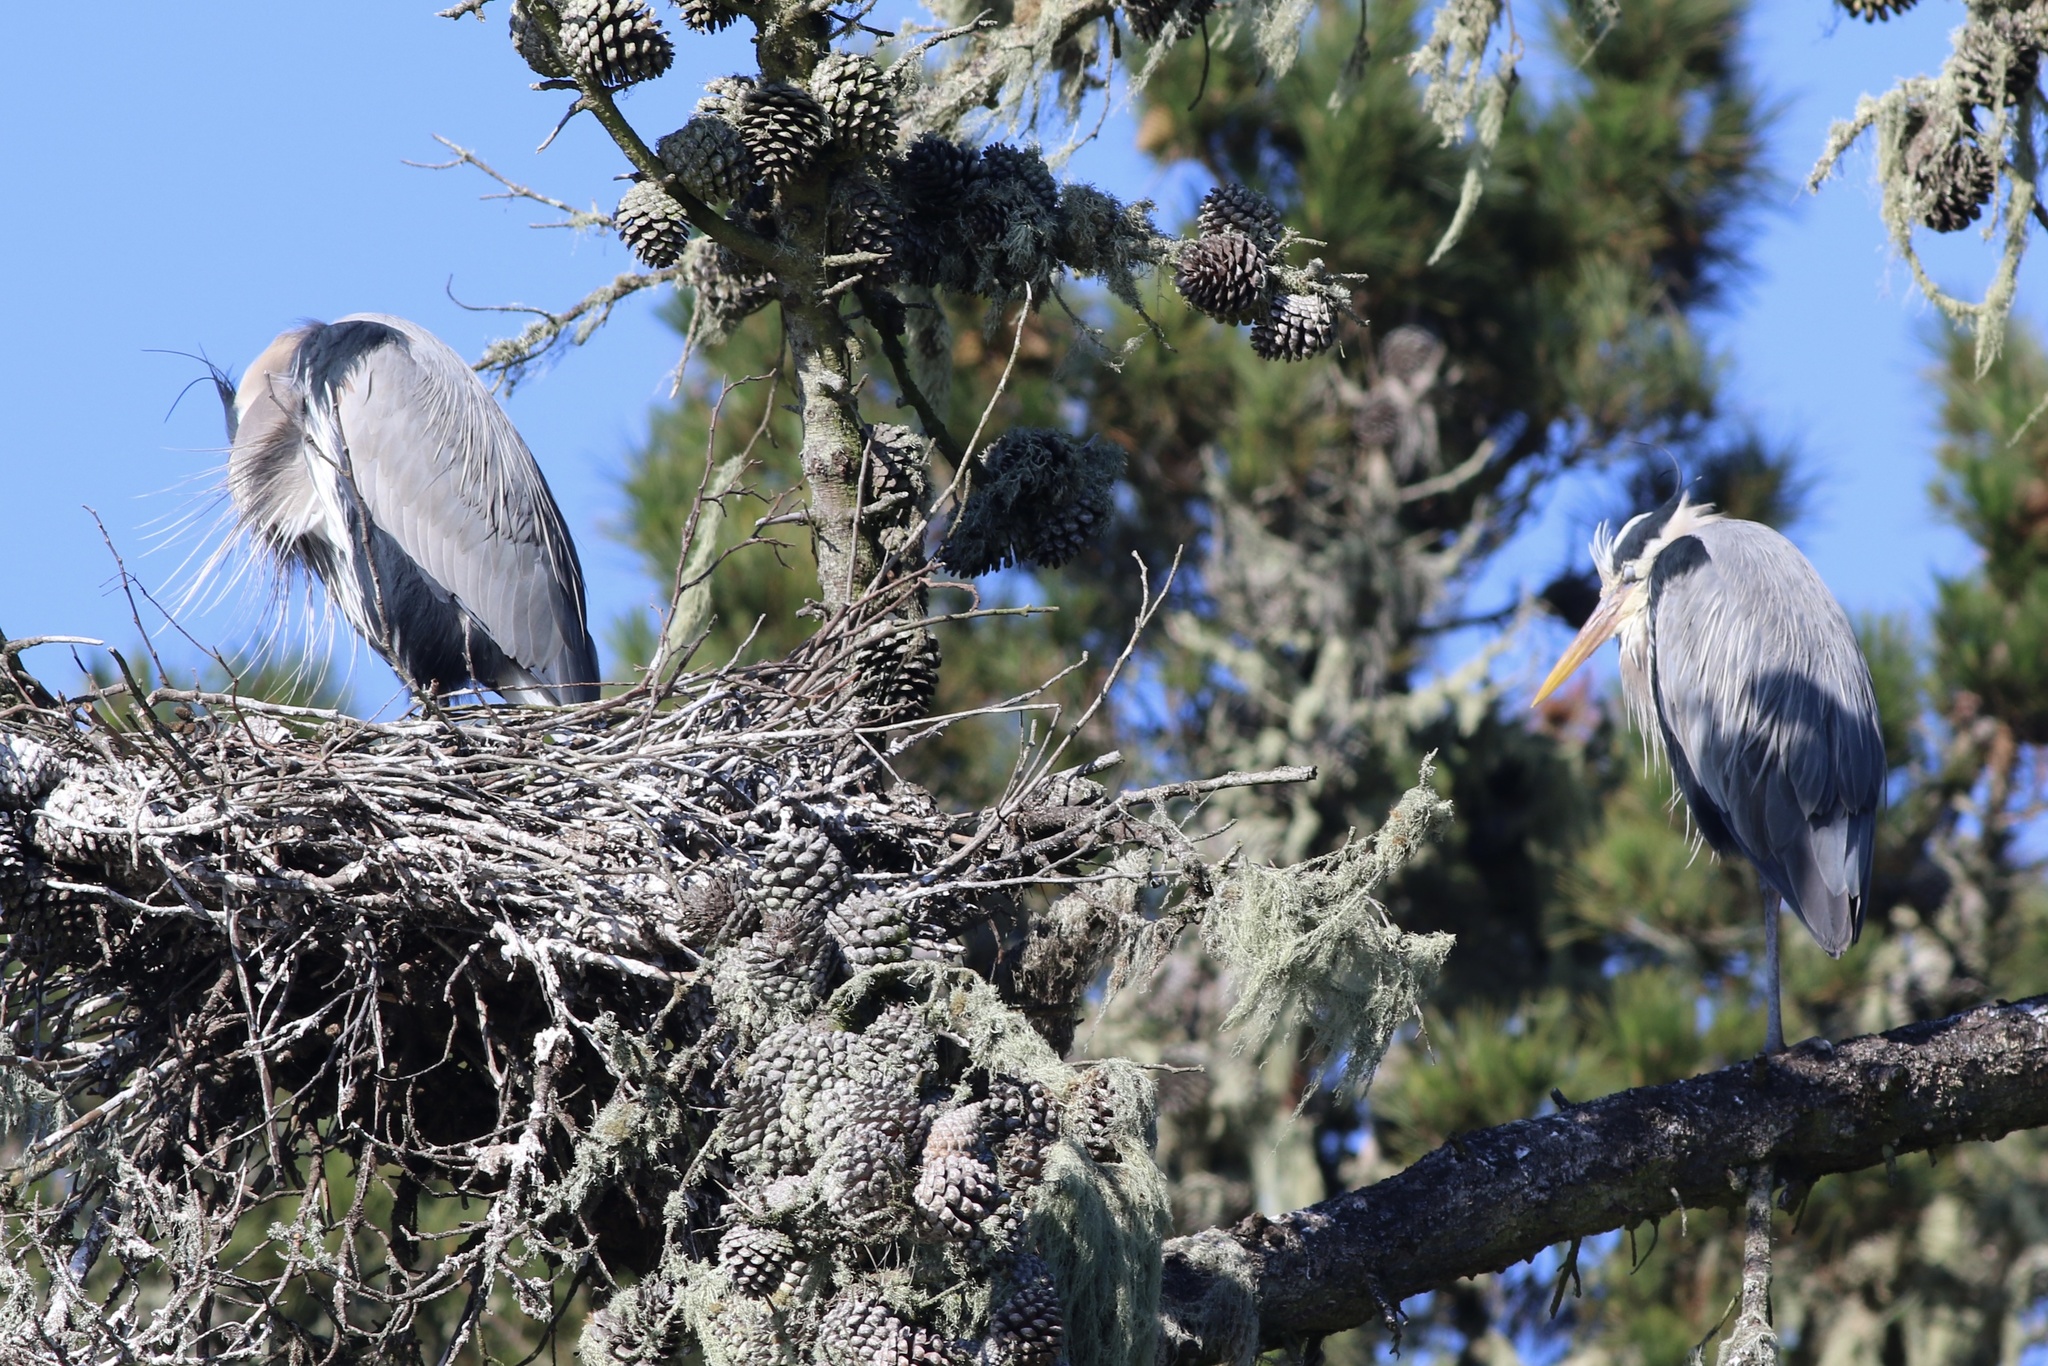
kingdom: Animalia
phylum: Chordata
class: Aves
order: Pelecaniformes
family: Ardeidae
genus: Ardea
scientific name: Ardea herodias
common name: Great blue heron
